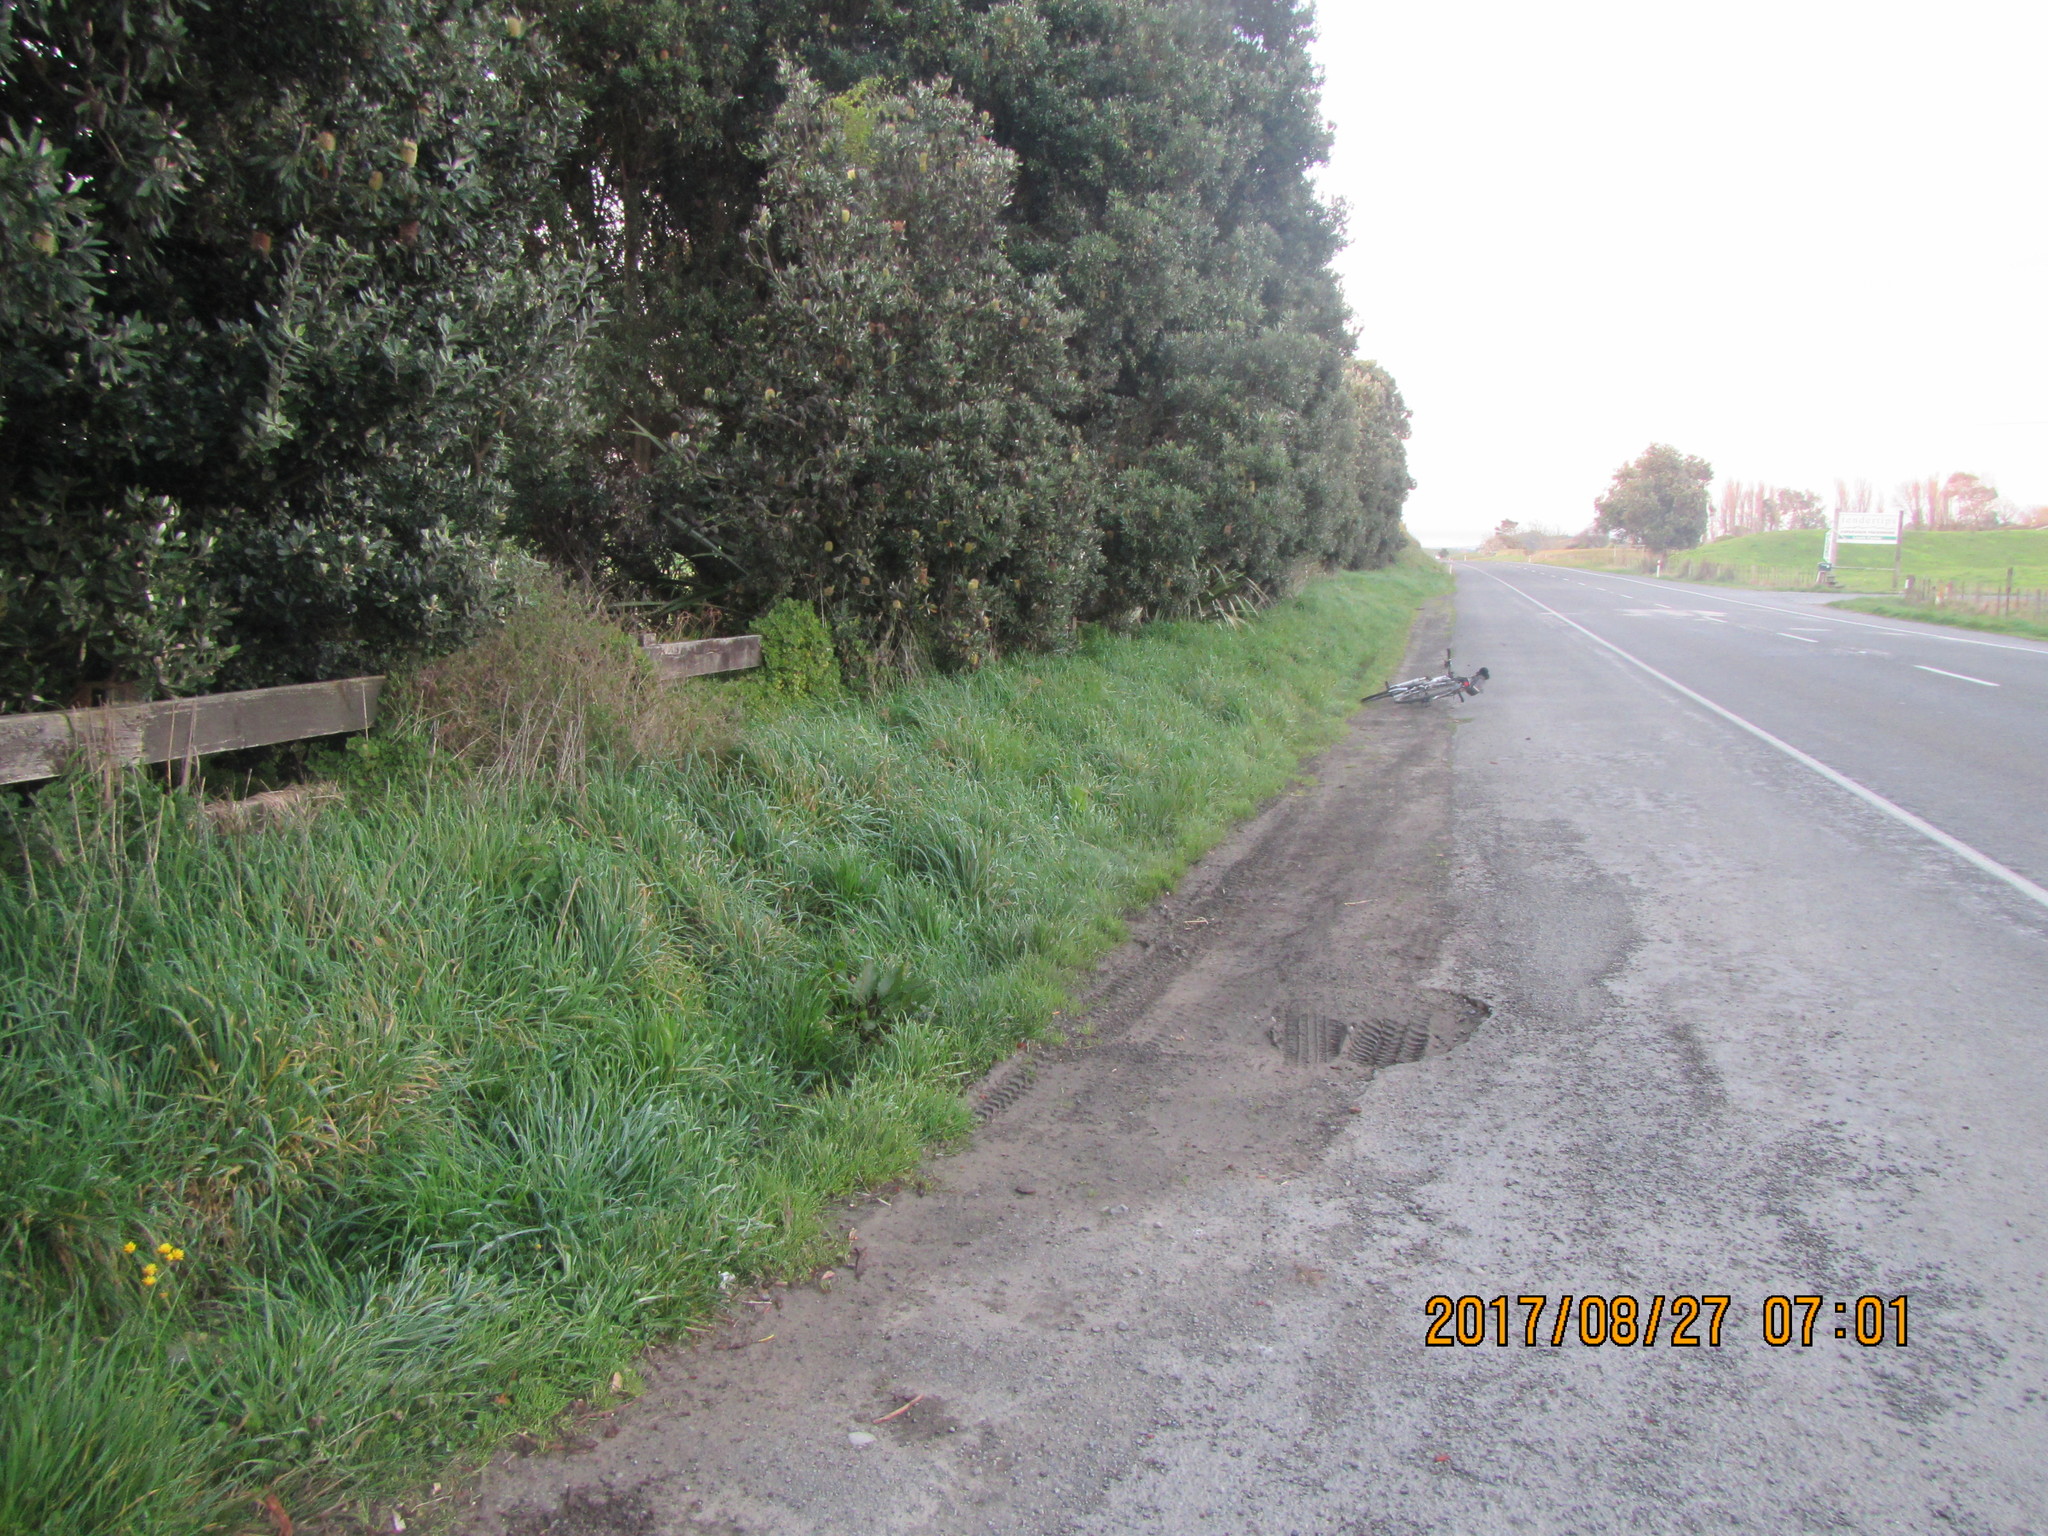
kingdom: Plantae
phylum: Tracheophyta
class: Magnoliopsida
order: Caryophyllales
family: Aizoaceae
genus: Tetragonia
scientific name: Tetragonia implexicoma
